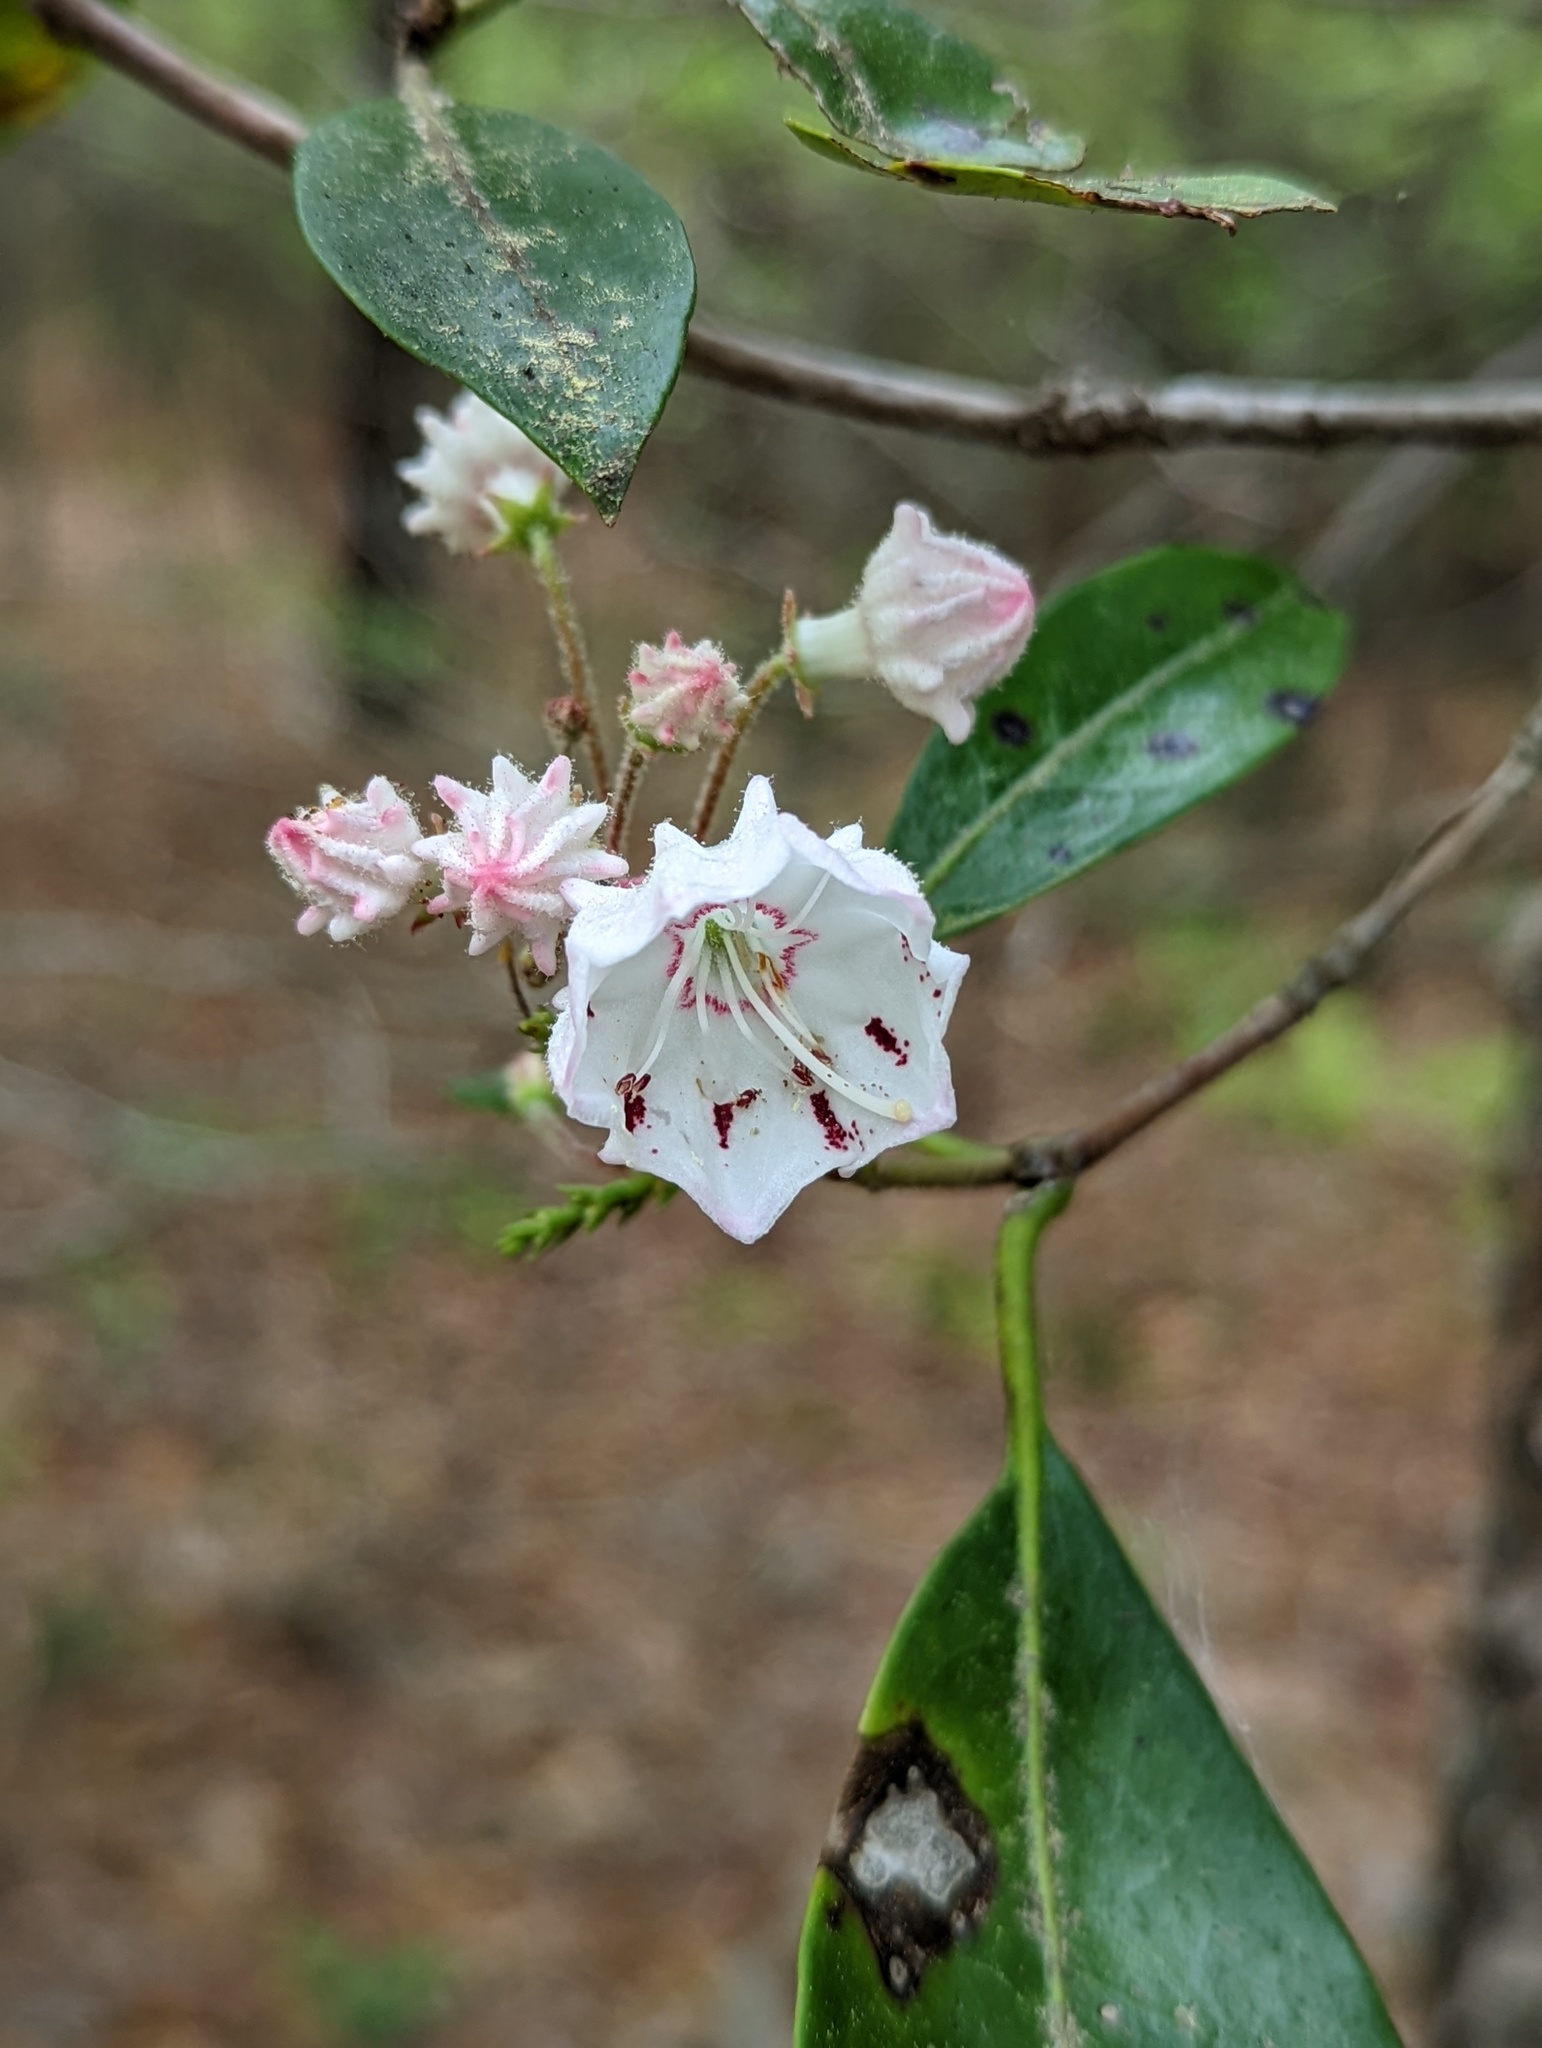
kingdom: Plantae
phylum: Tracheophyta
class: Magnoliopsida
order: Ericales
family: Ericaceae
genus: Kalmia
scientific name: Kalmia latifolia
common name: Mountain-laurel
